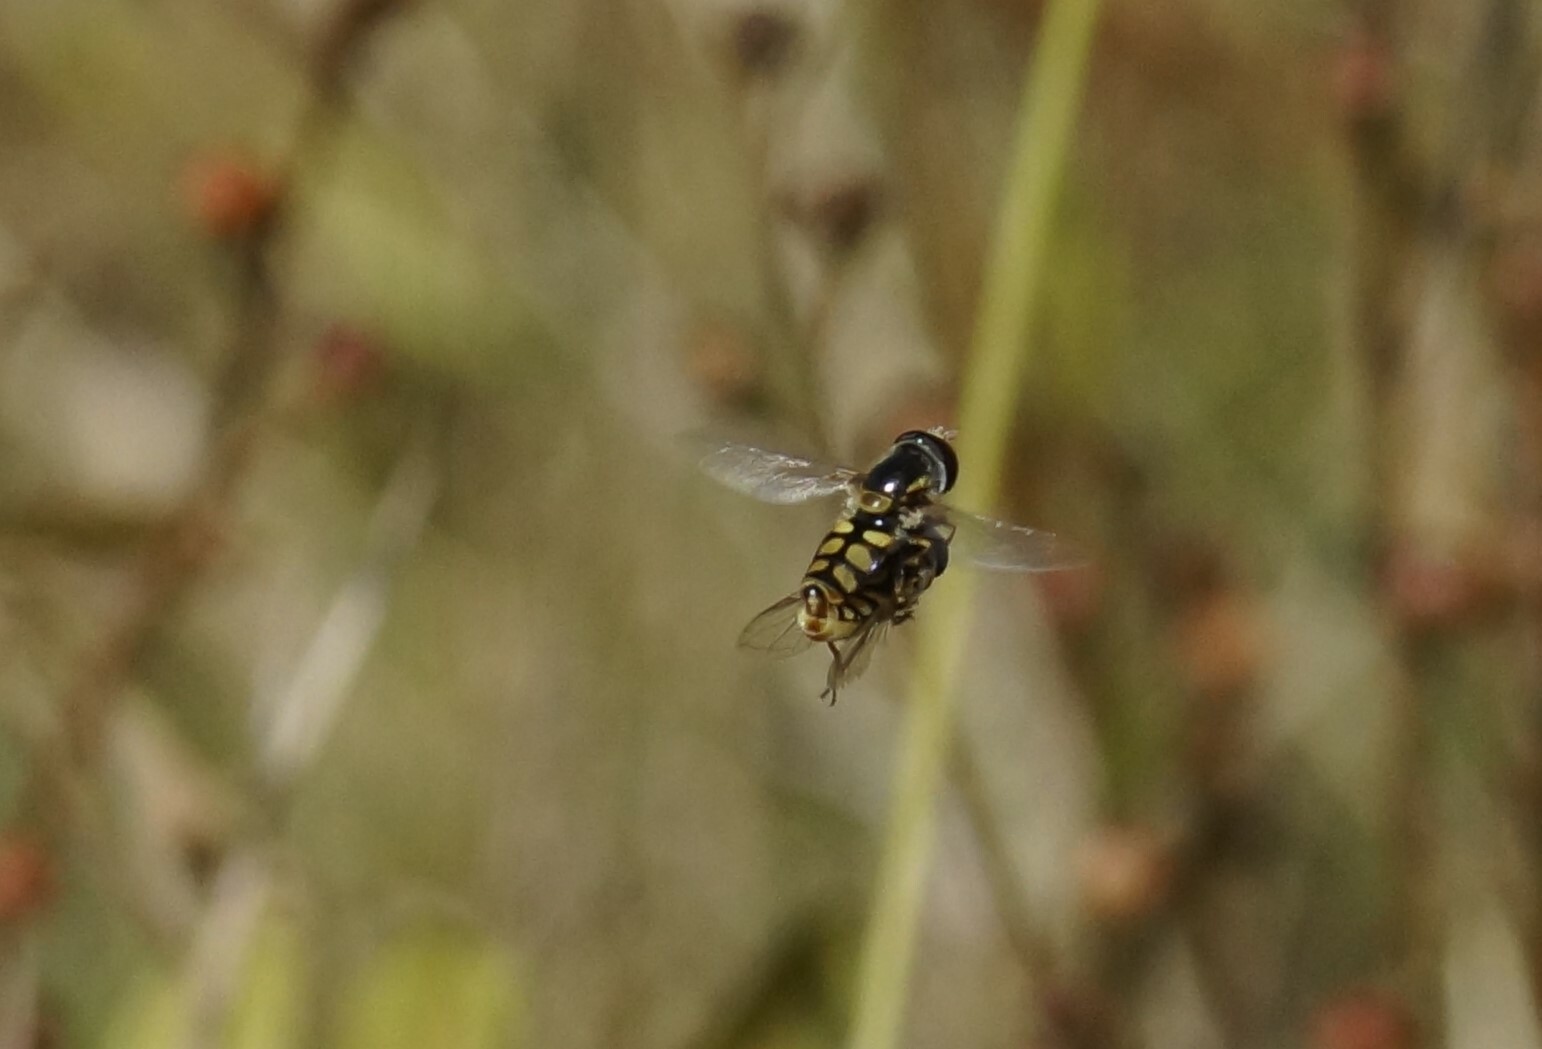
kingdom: Animalia
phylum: Arthropoda
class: Insecta
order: Diptera
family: Syrphidae
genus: Simosyrphus
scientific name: Simosyrphus grandicornis
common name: Hoverfly
